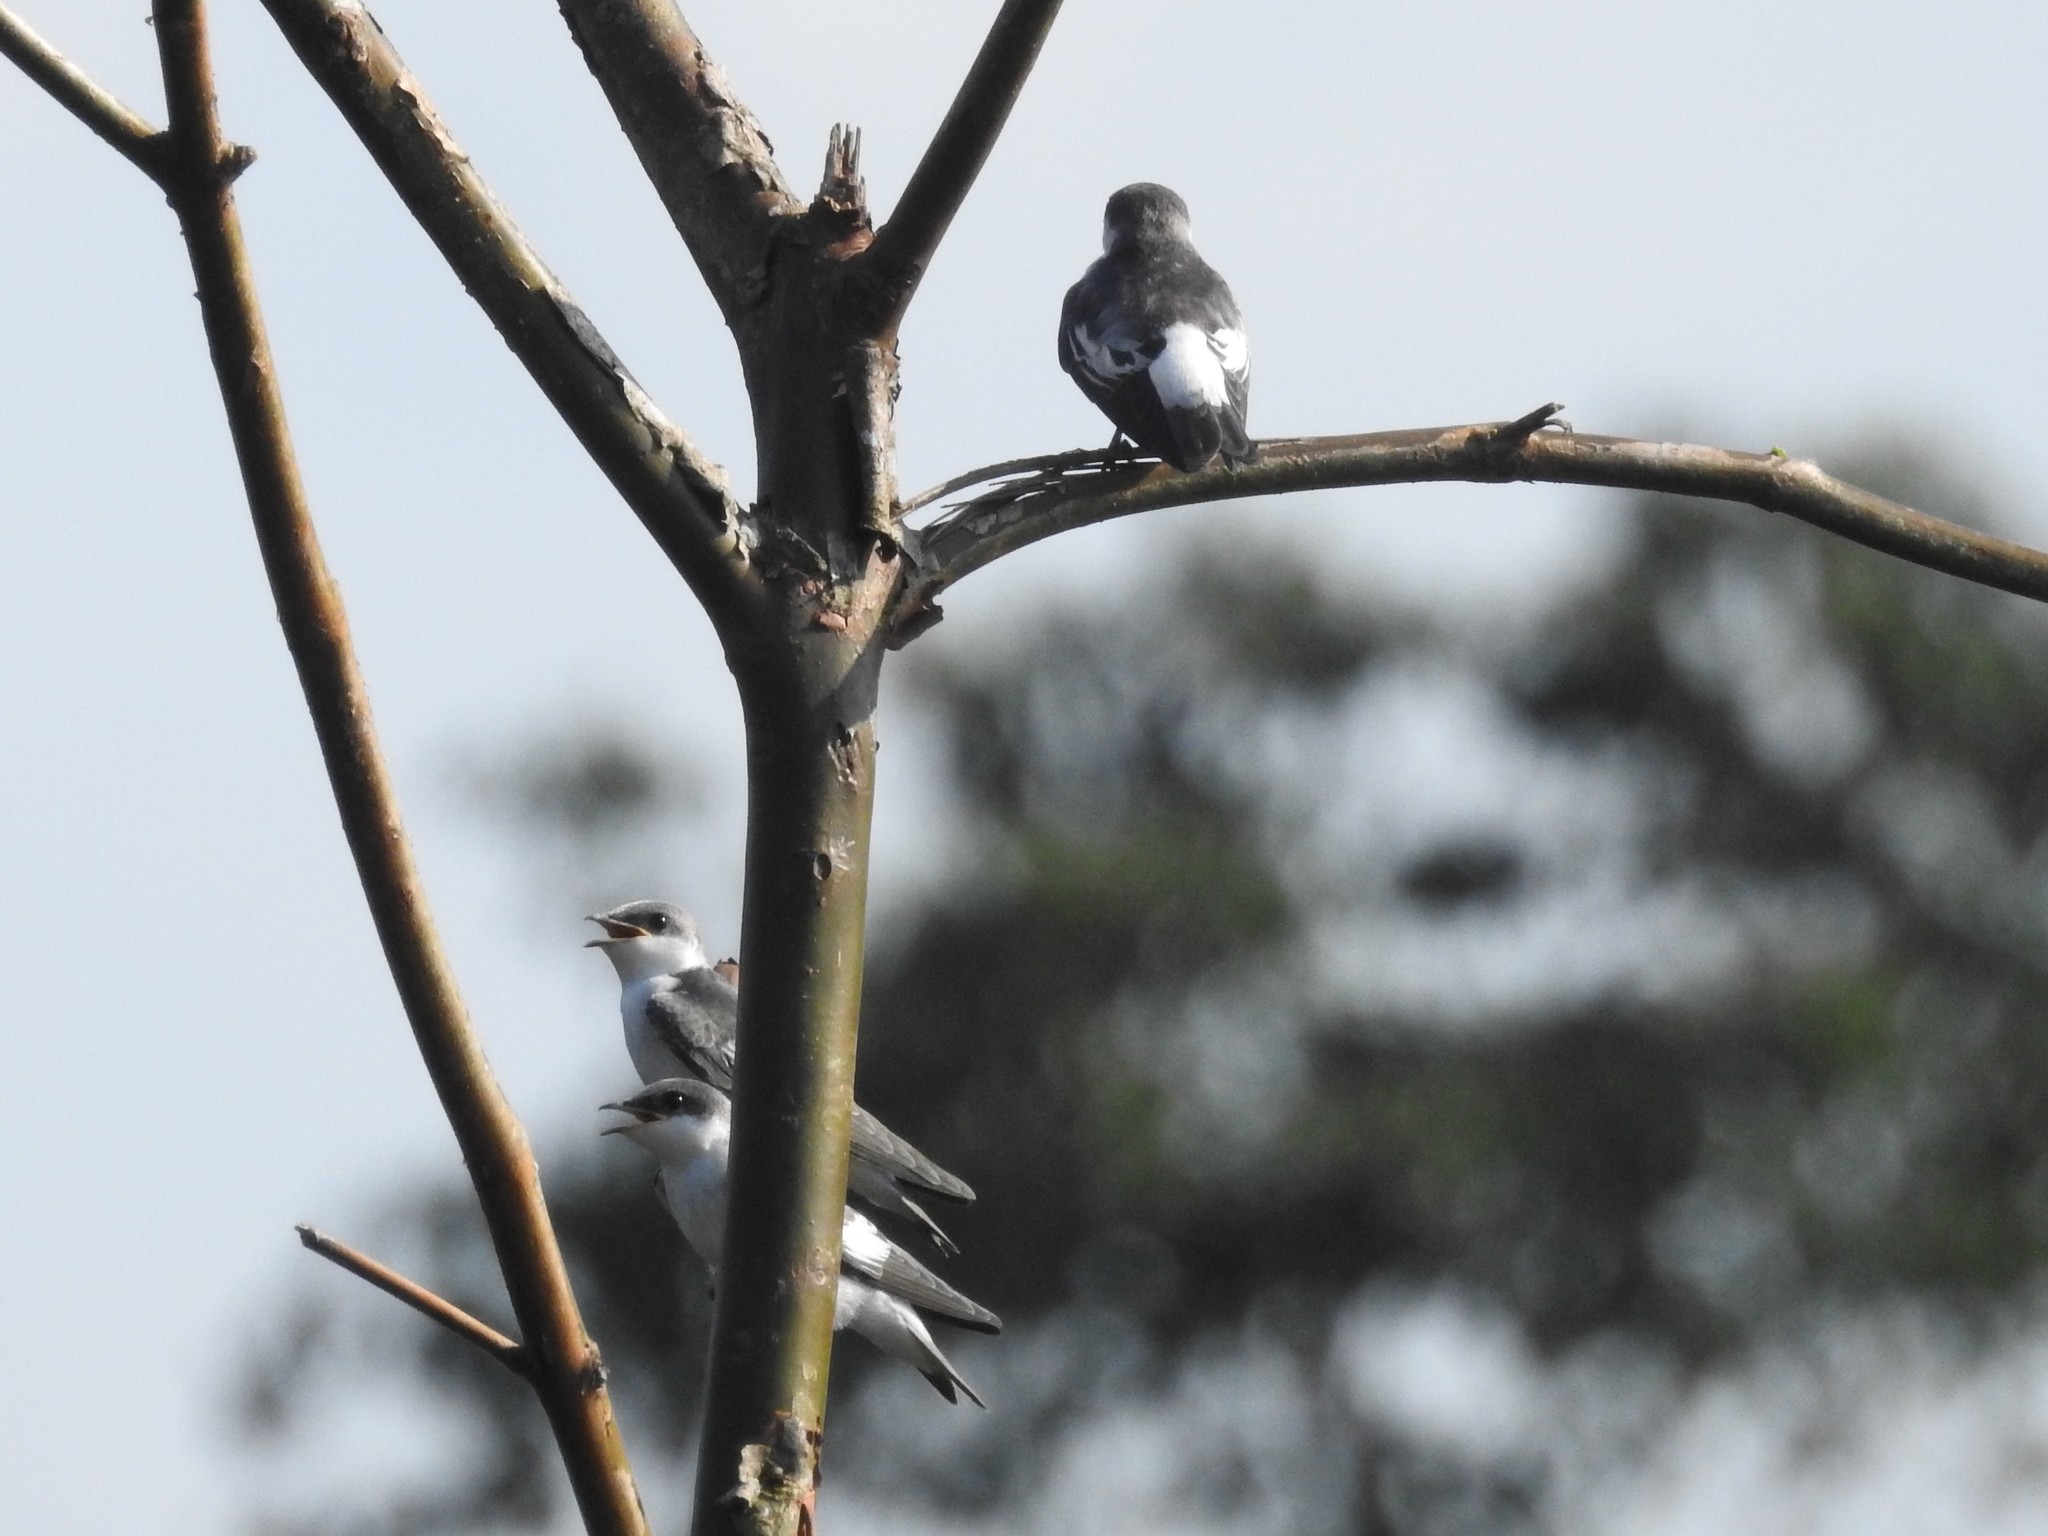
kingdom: Animalia
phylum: Chordata
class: Aves
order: Passeriformes
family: Hirundinidae
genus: Tachycineta
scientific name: Tachycineta albiventer
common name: White-winged swallow
